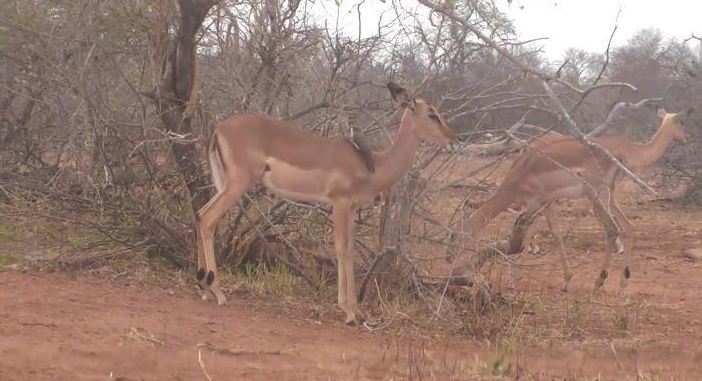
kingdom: Animalia
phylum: Chordata
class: Mammalia
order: Artiodactyla
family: Bovidae
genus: Aepyceros
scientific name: Aepyceros melampus
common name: Impala
